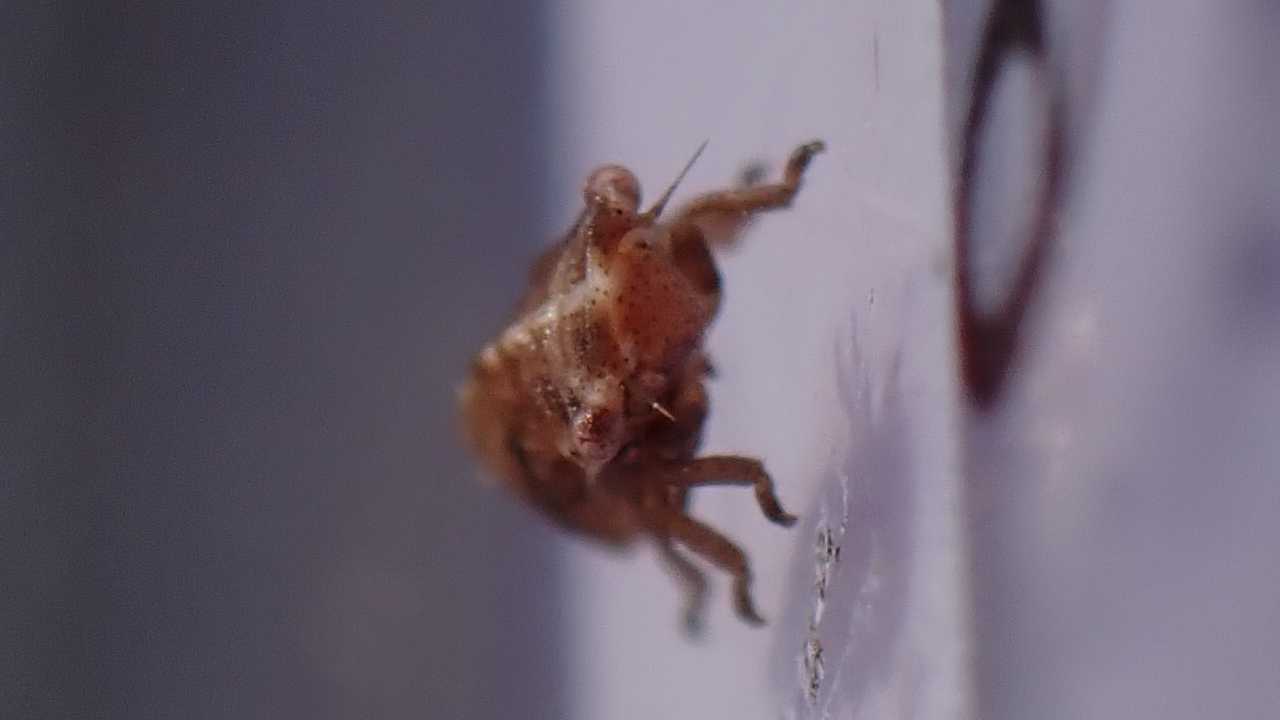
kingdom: Animalia
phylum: Arthropoda
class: Insecta
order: Hemiptera
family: Cicadellidae
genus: Ulopa
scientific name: Ulopa reticulata
